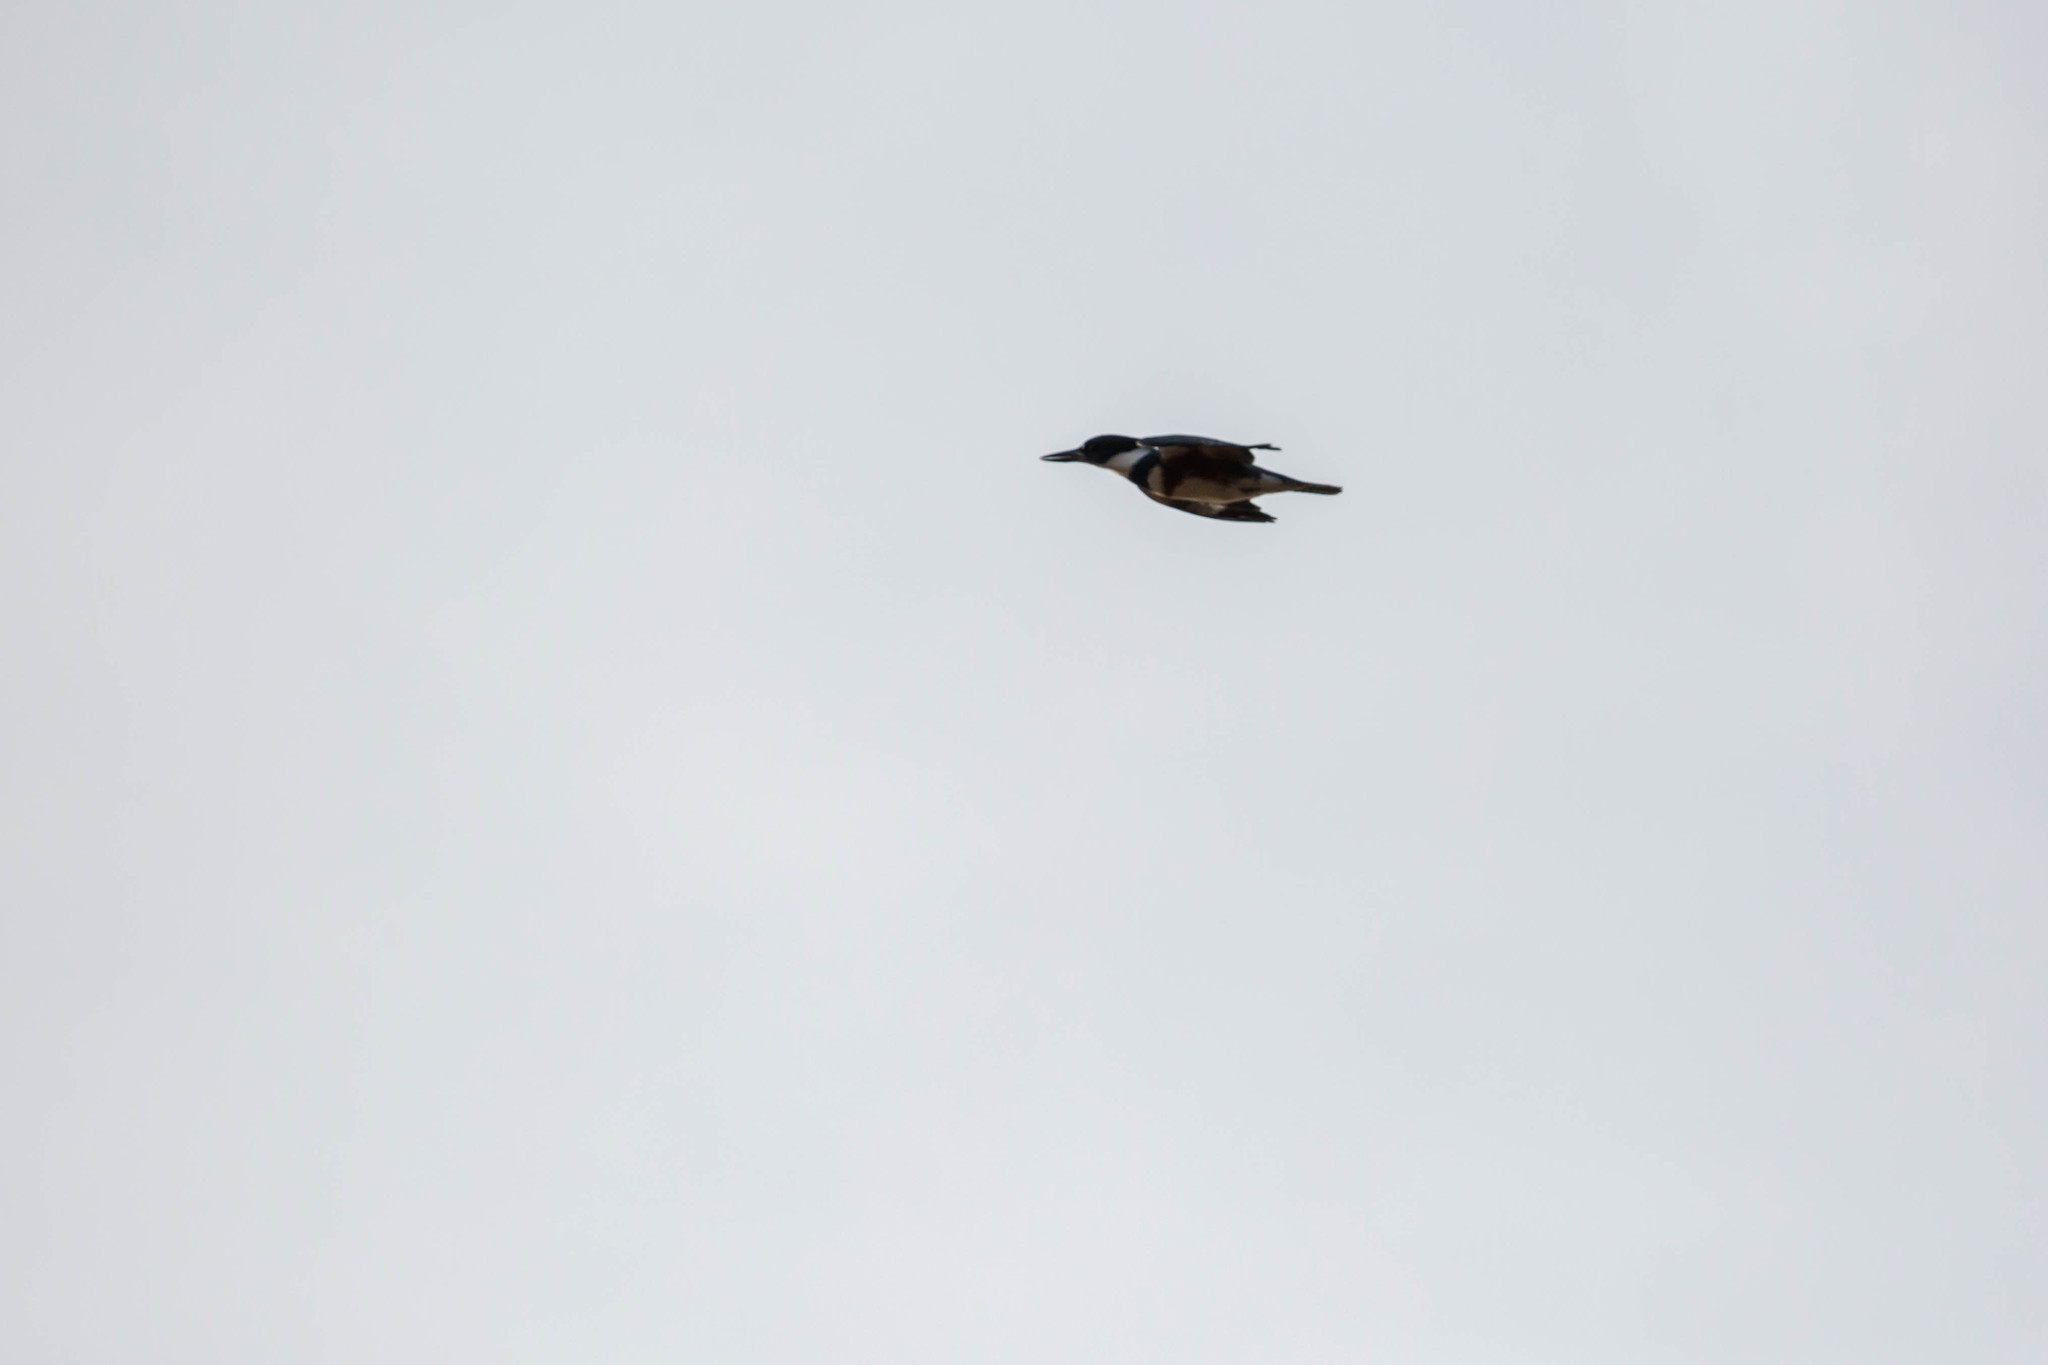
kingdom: Animalia
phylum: Chordata
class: Aves
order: Coraciiformes
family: Alcedinidae
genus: Megaceryle
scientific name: Megaceryle alcyon
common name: Belted kingfisher
